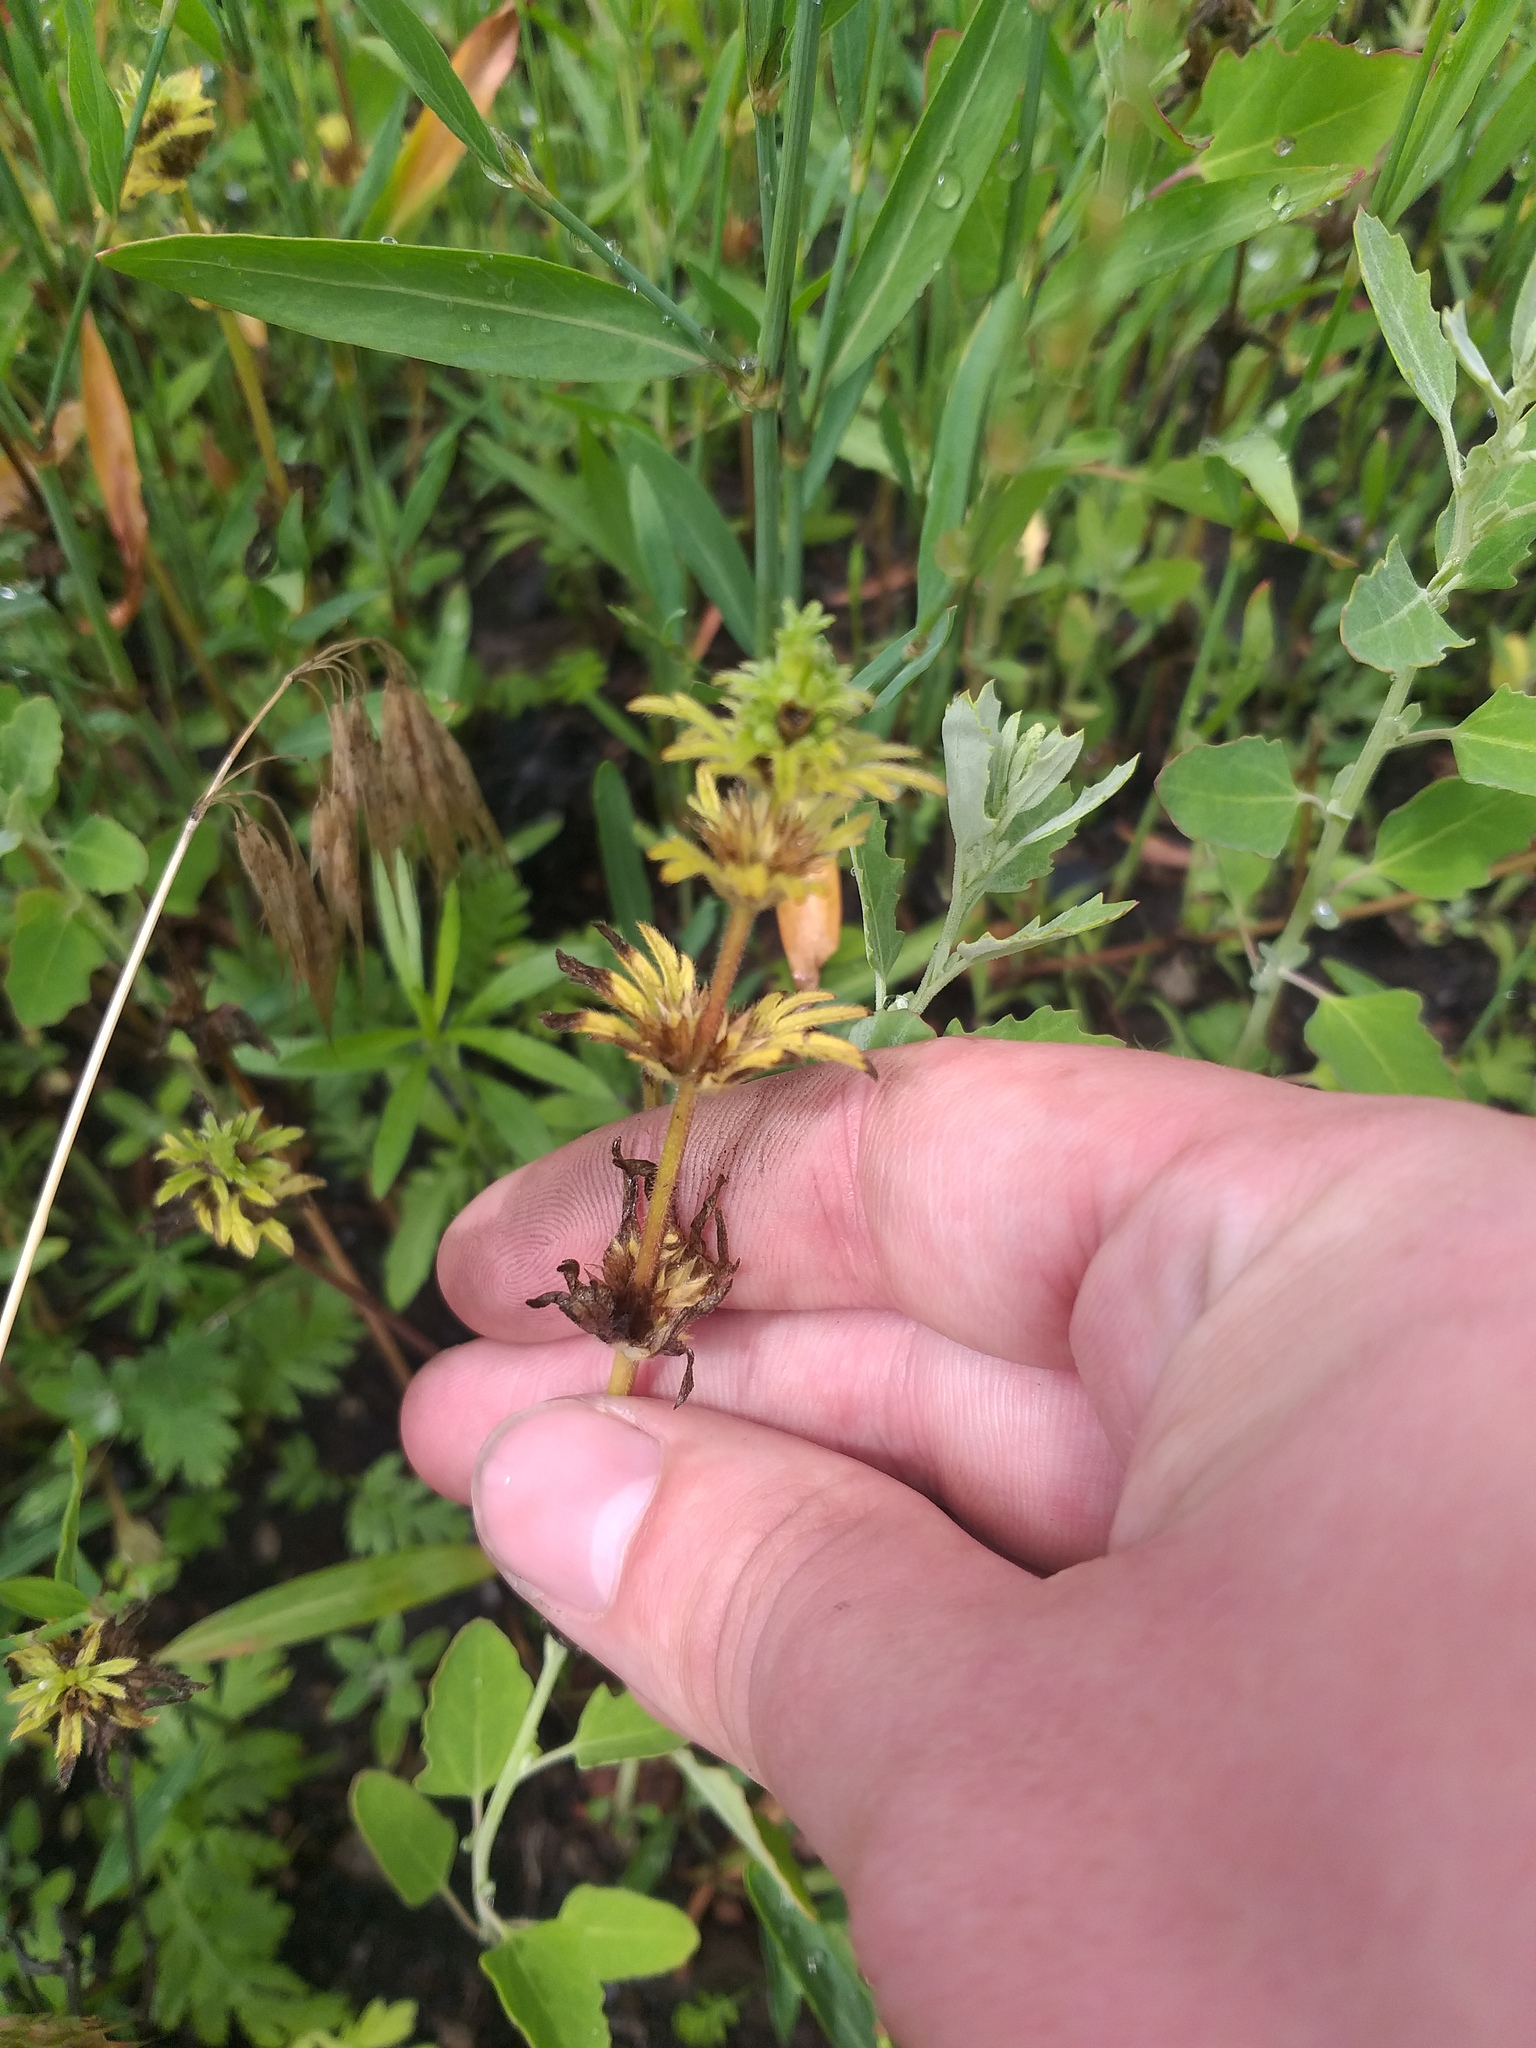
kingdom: Plantae
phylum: Tracheophyta
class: Magnoliopsida
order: Lamiales
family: Lamiaceae
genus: Lamium
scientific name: Lamium amplexicaule
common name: Henbit dead-nettle
